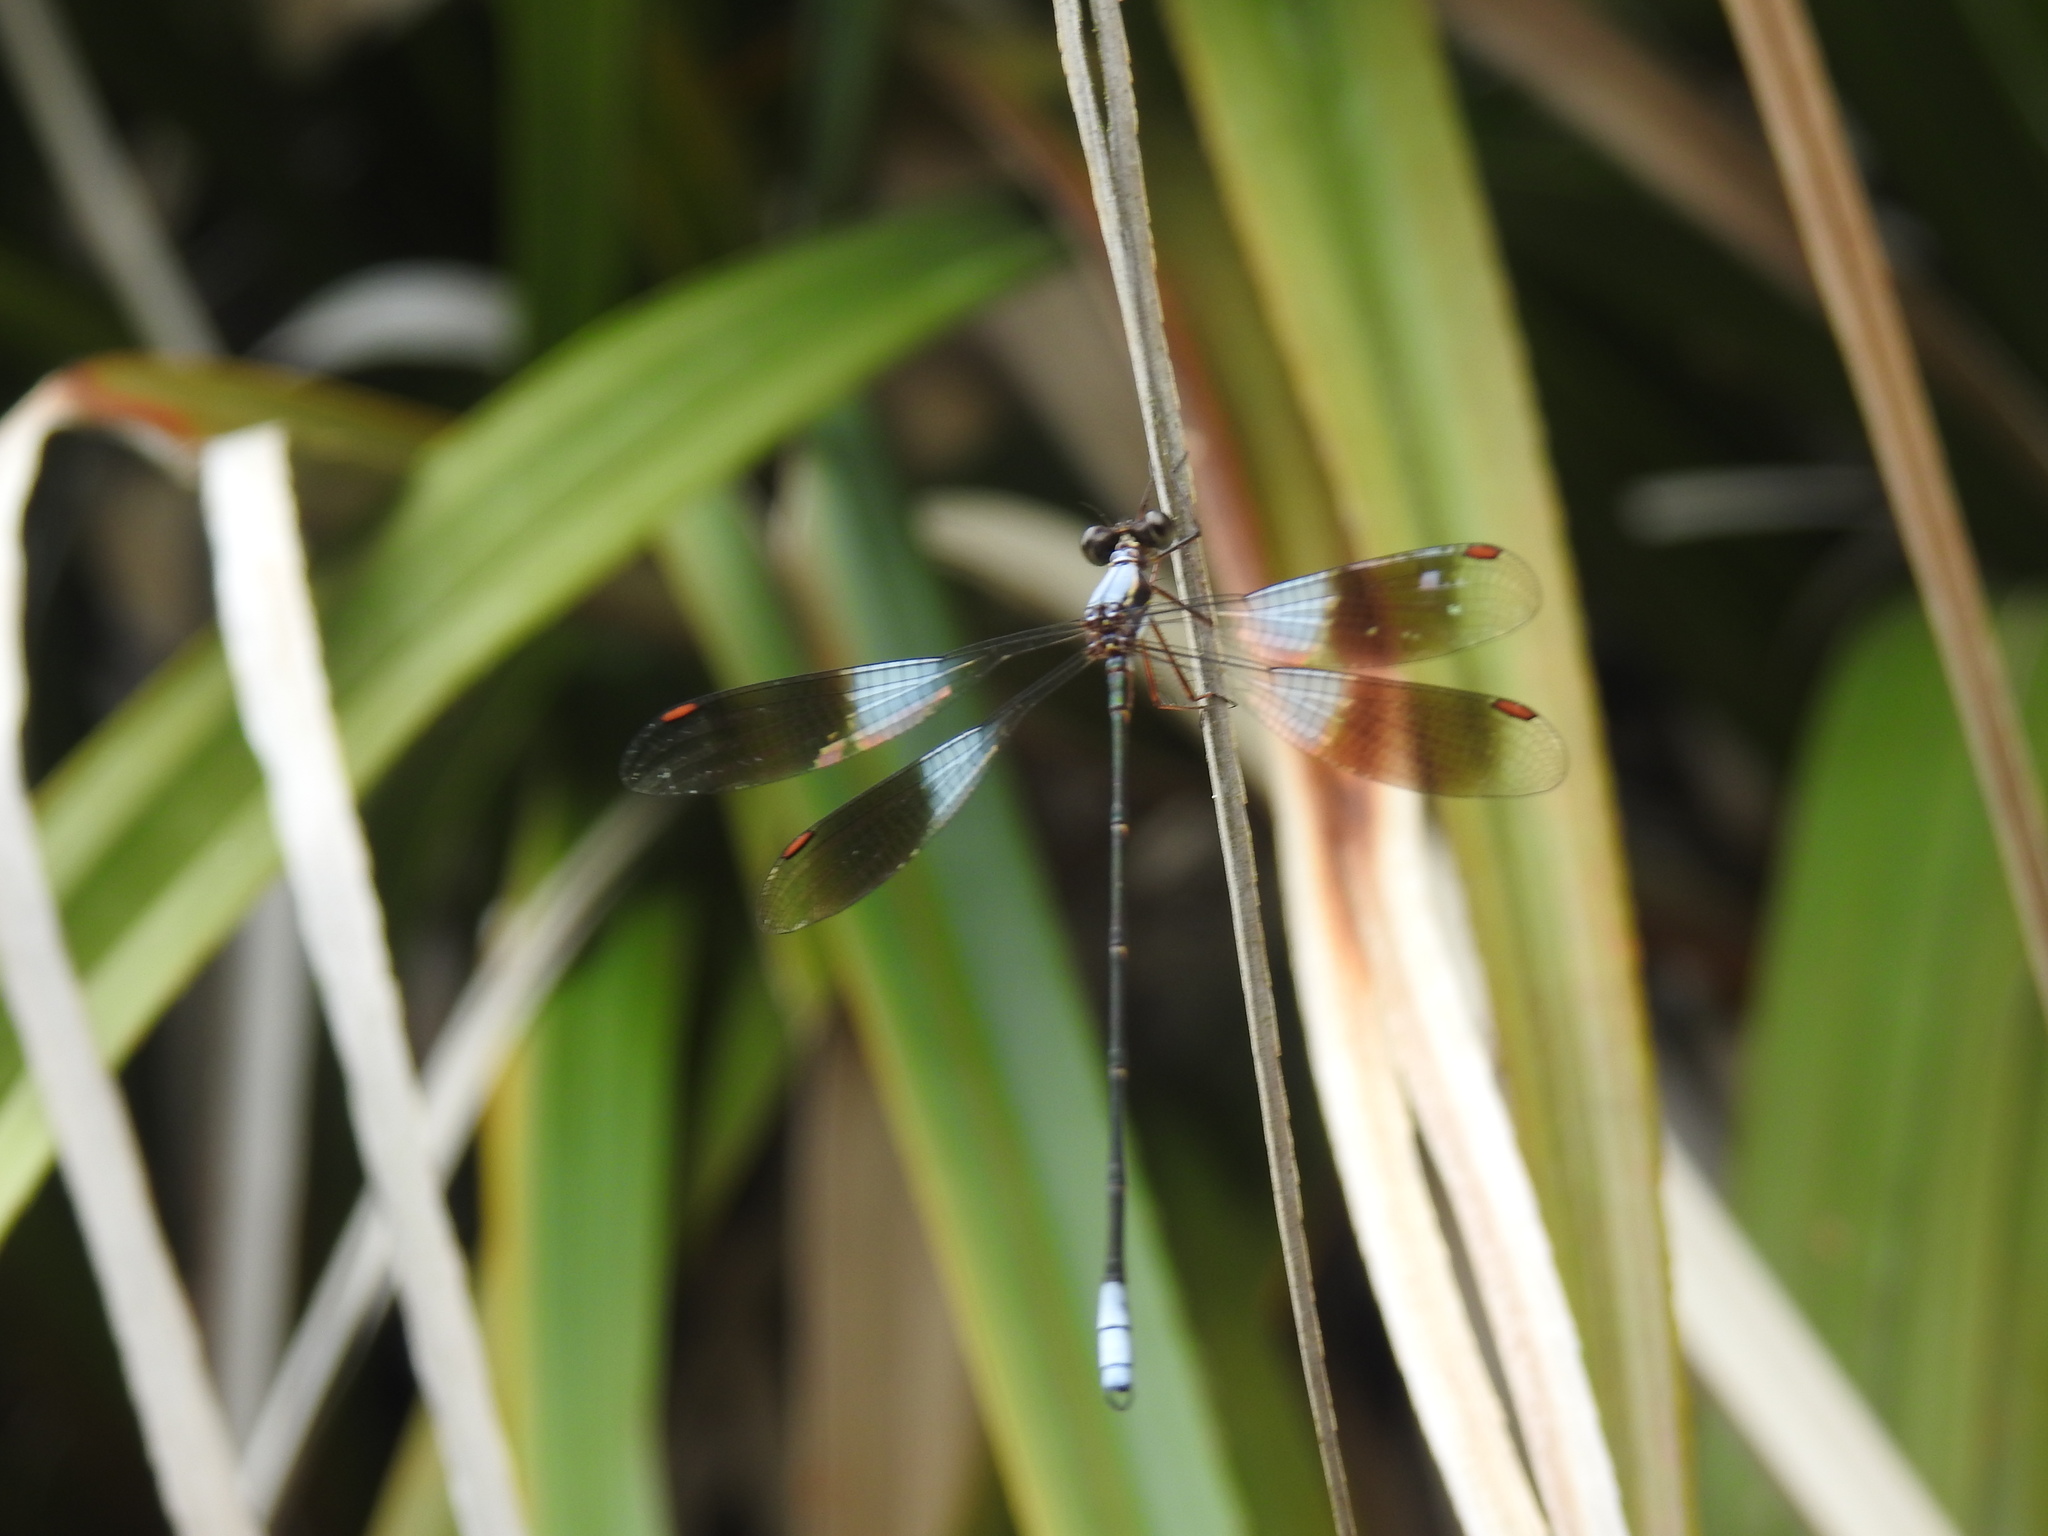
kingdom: Animalia
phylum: Arthropoda
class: Insecta
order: Odonata
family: Synlestidae
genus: Chlorolestes
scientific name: Chlorolestes umbratus
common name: White malachite
